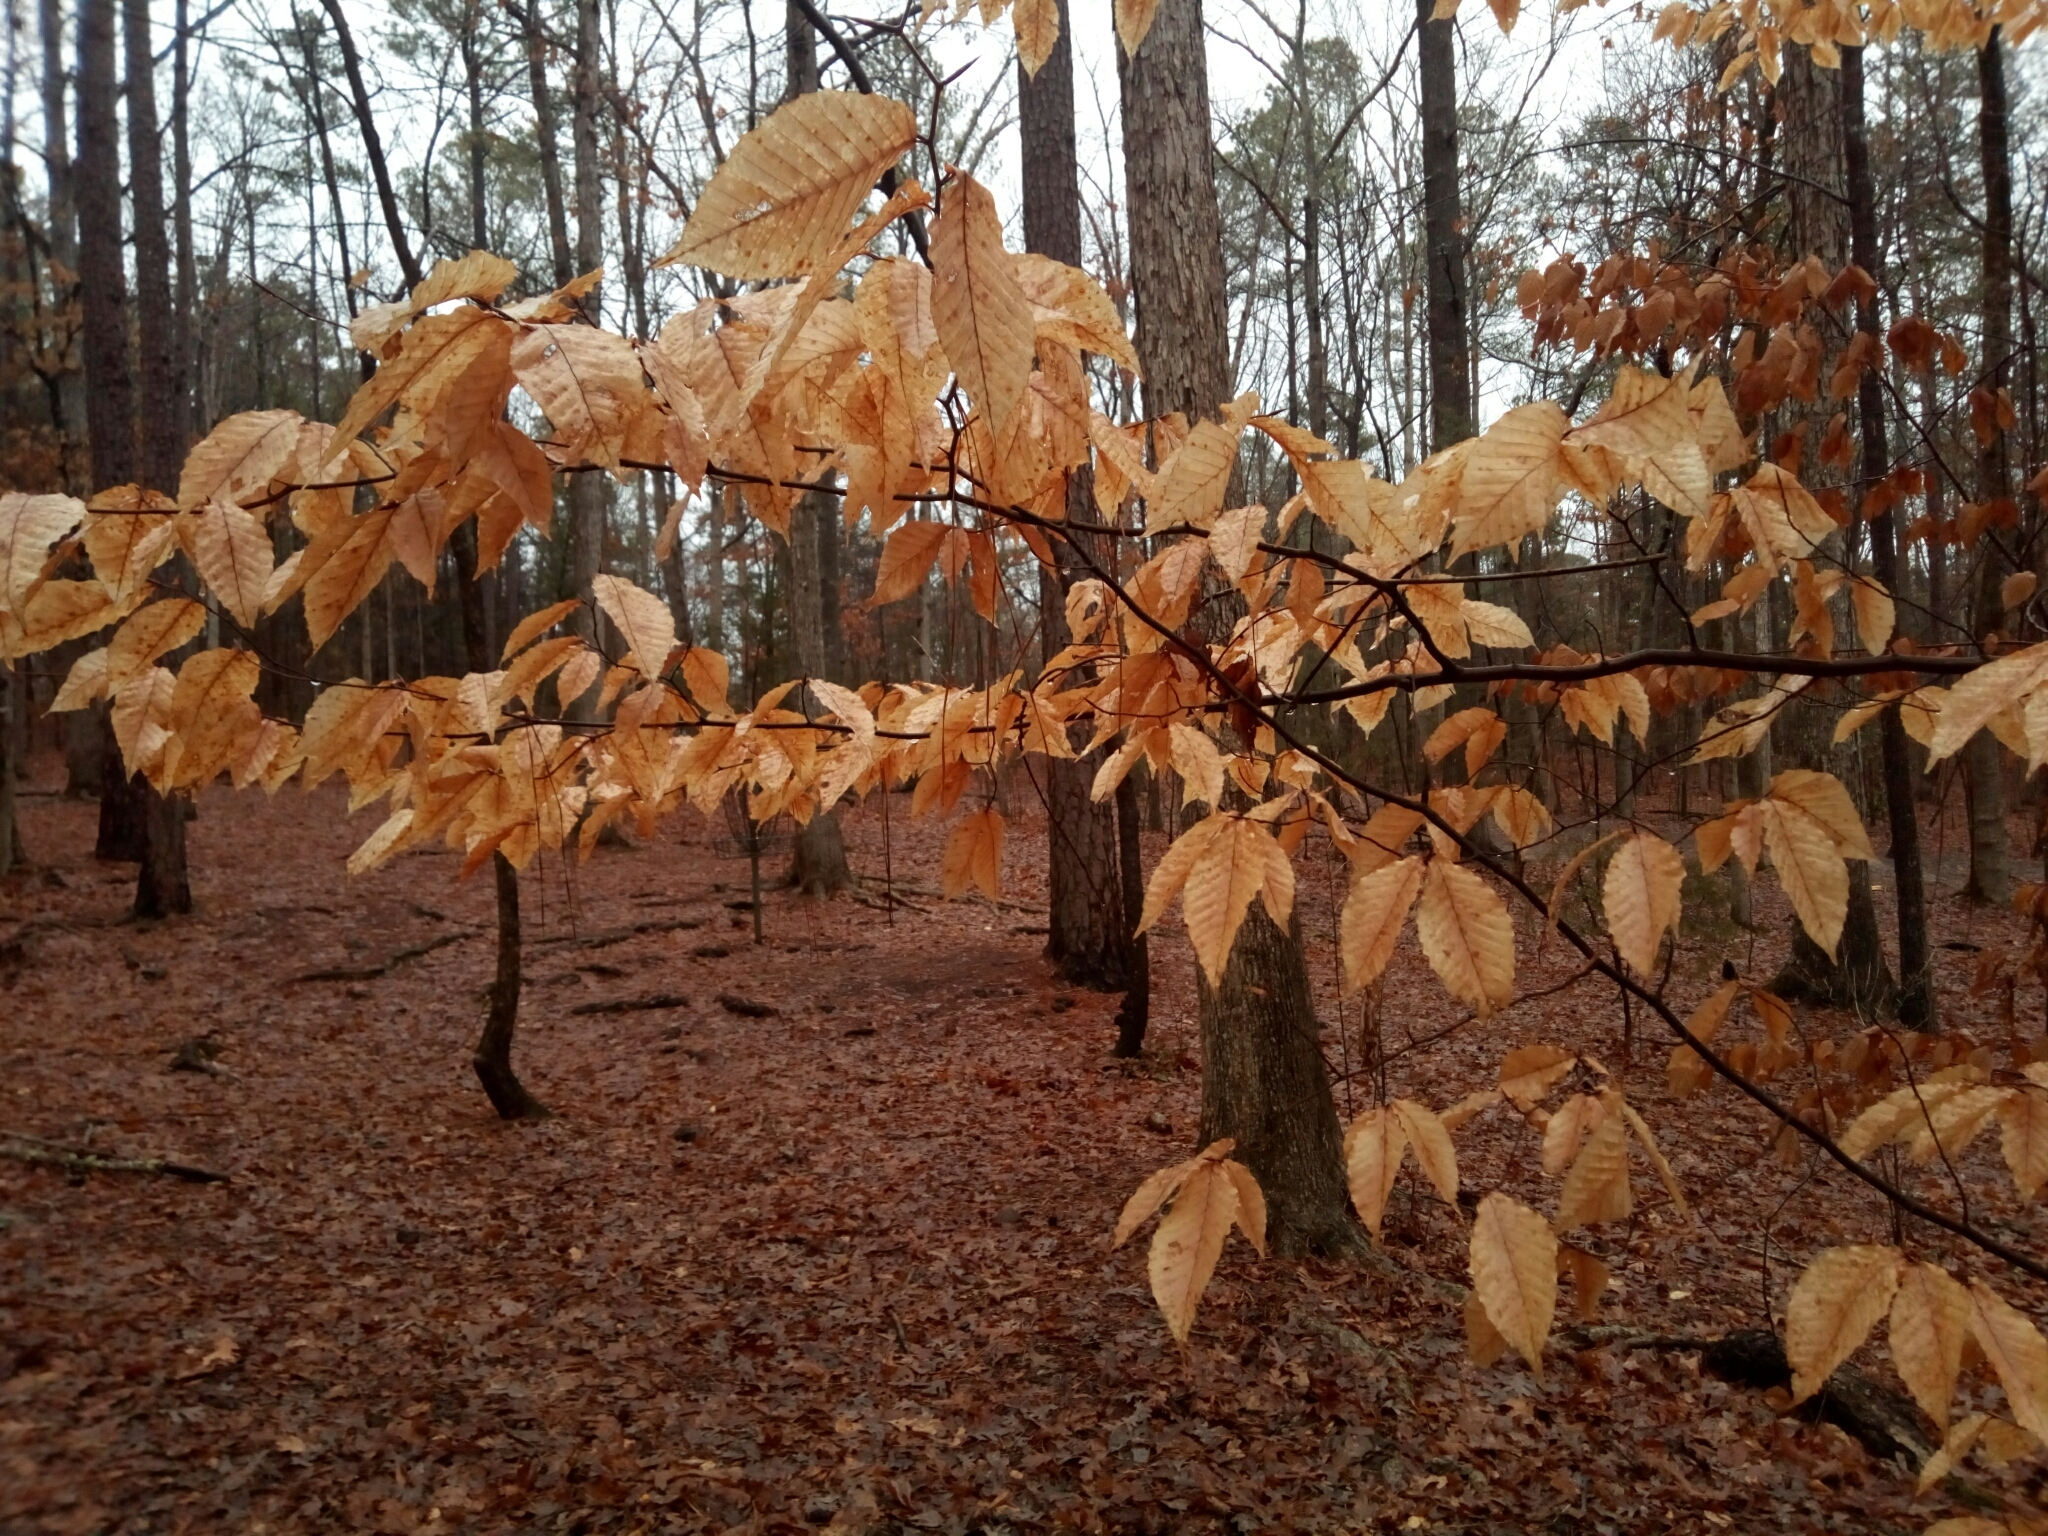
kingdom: Plantae
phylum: Tracheophyta
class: Magnoliopsida
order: Fagales
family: Fagaceae
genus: Fagus
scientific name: Fagus grandifolia
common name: American beech
